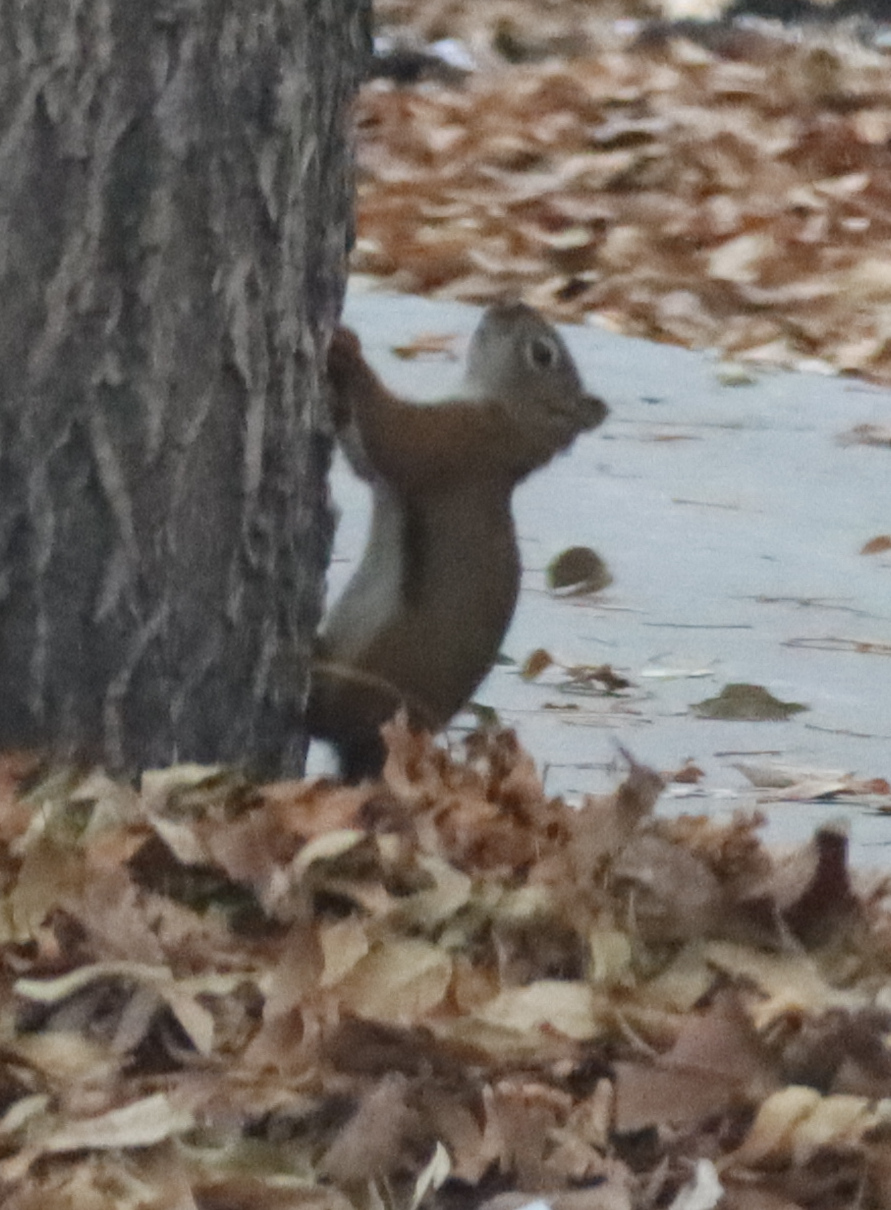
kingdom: Animalia
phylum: Chordata
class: Mammalia
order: Rodentia
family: Sciuridae
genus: Tamiasciurus
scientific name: Tamiasciurus hudsonicus
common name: Red squirrel
